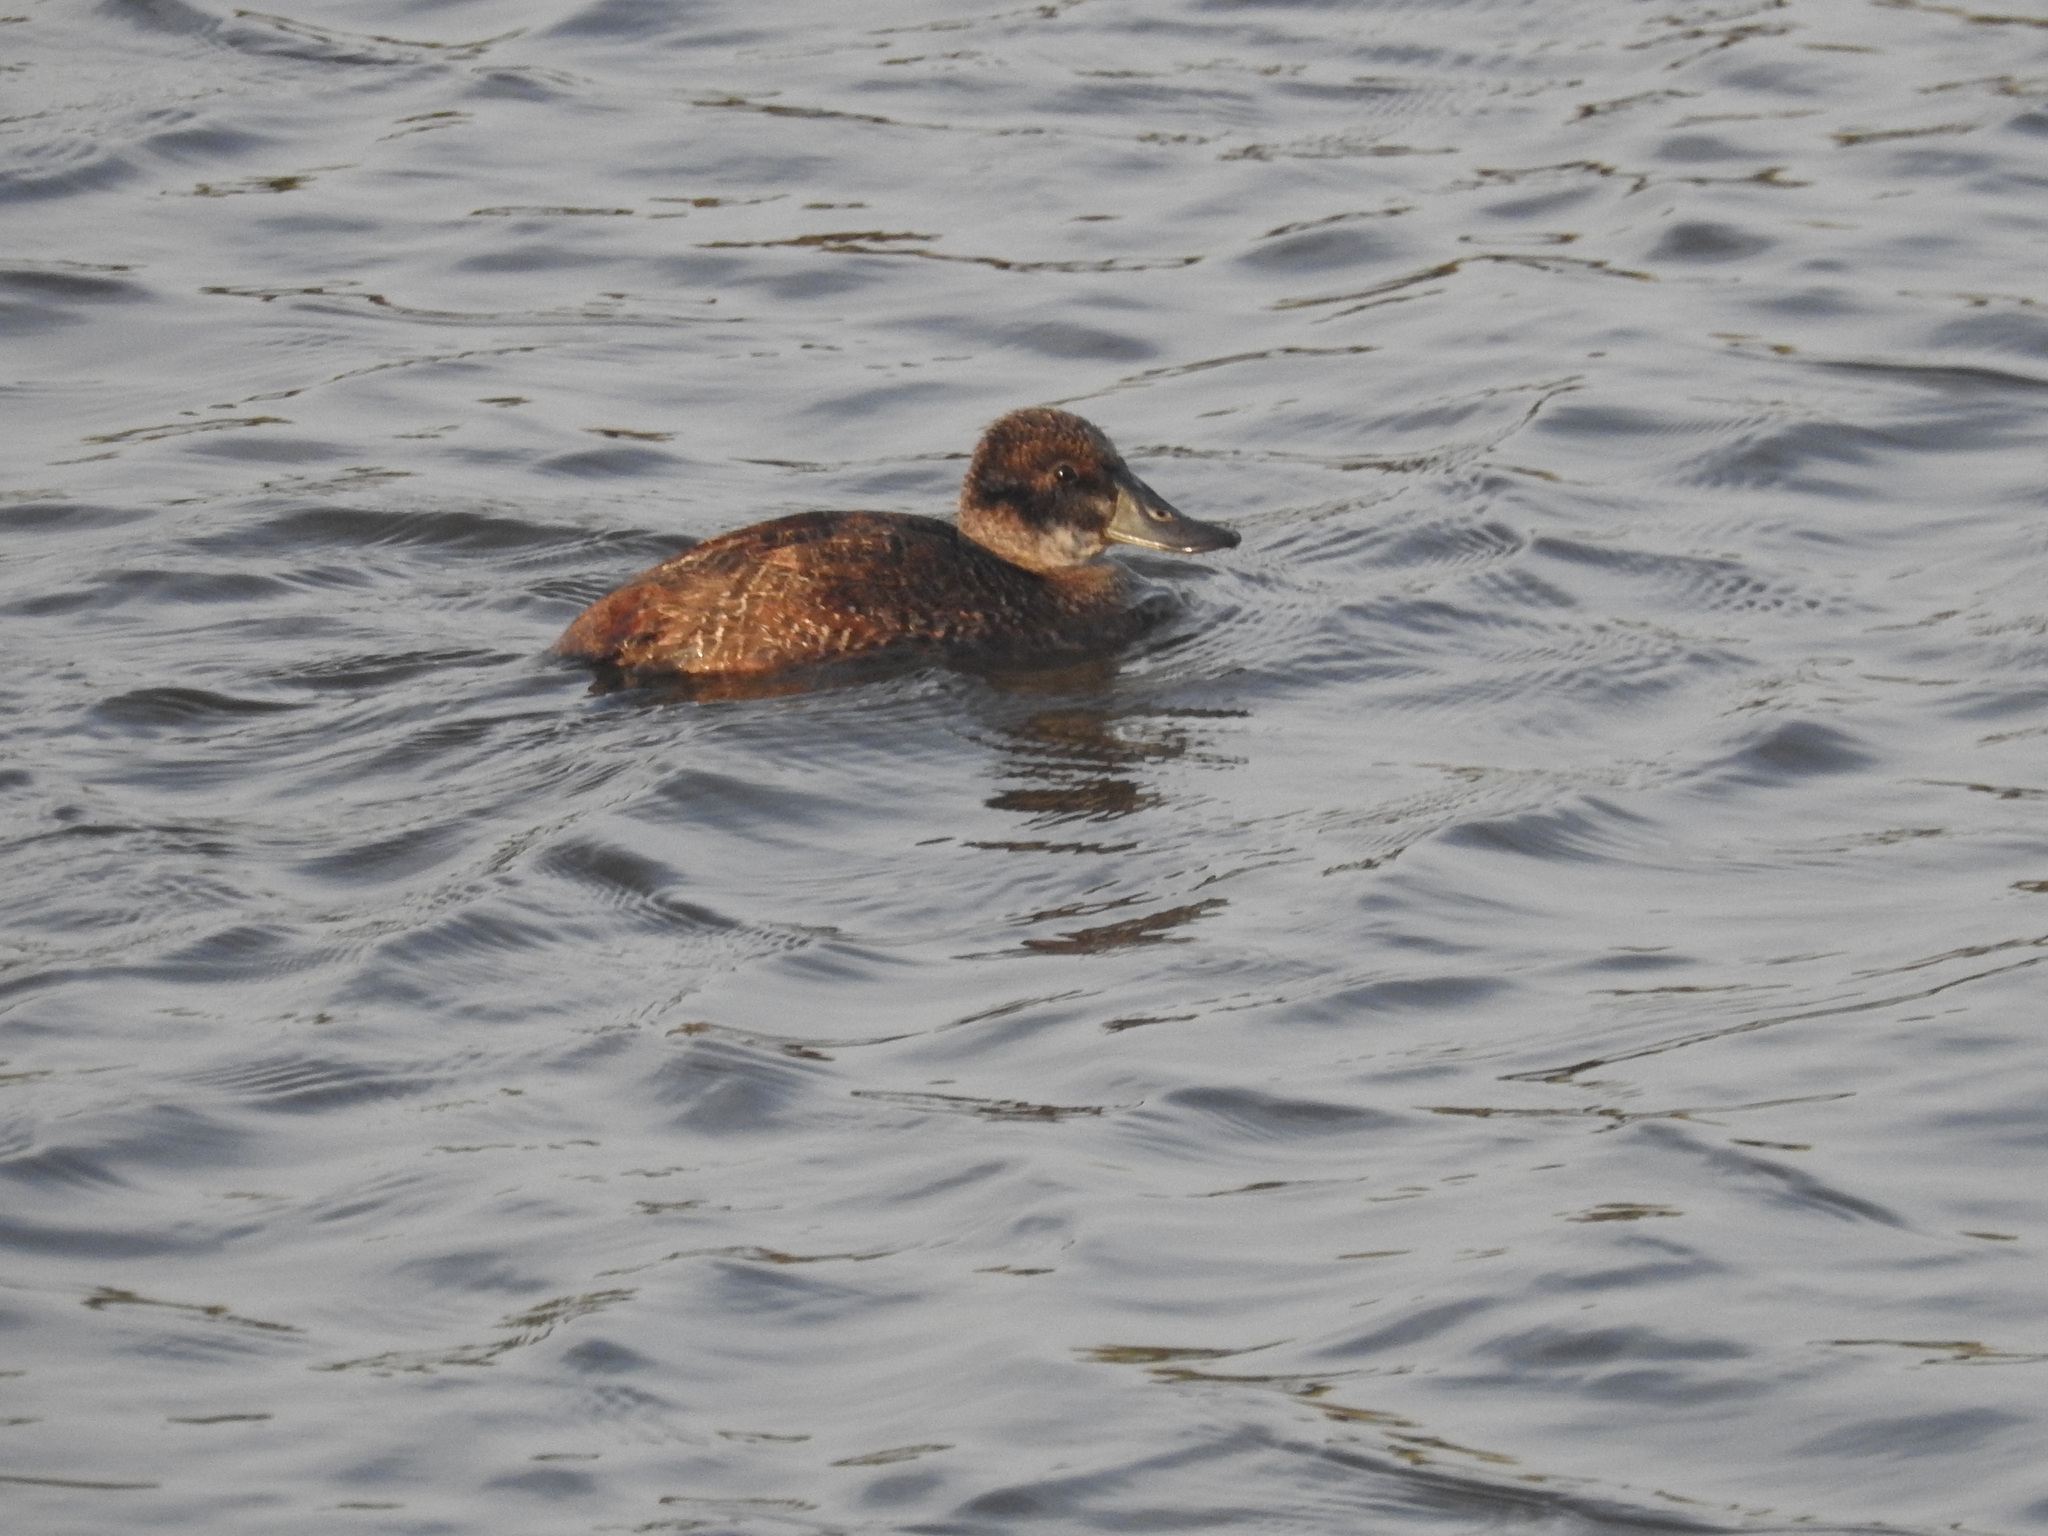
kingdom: Animalia
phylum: Chordata
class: Aves
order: Anseriformes
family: Anatidae
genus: Oxyura
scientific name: Oxyura vittata
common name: Lake duck
